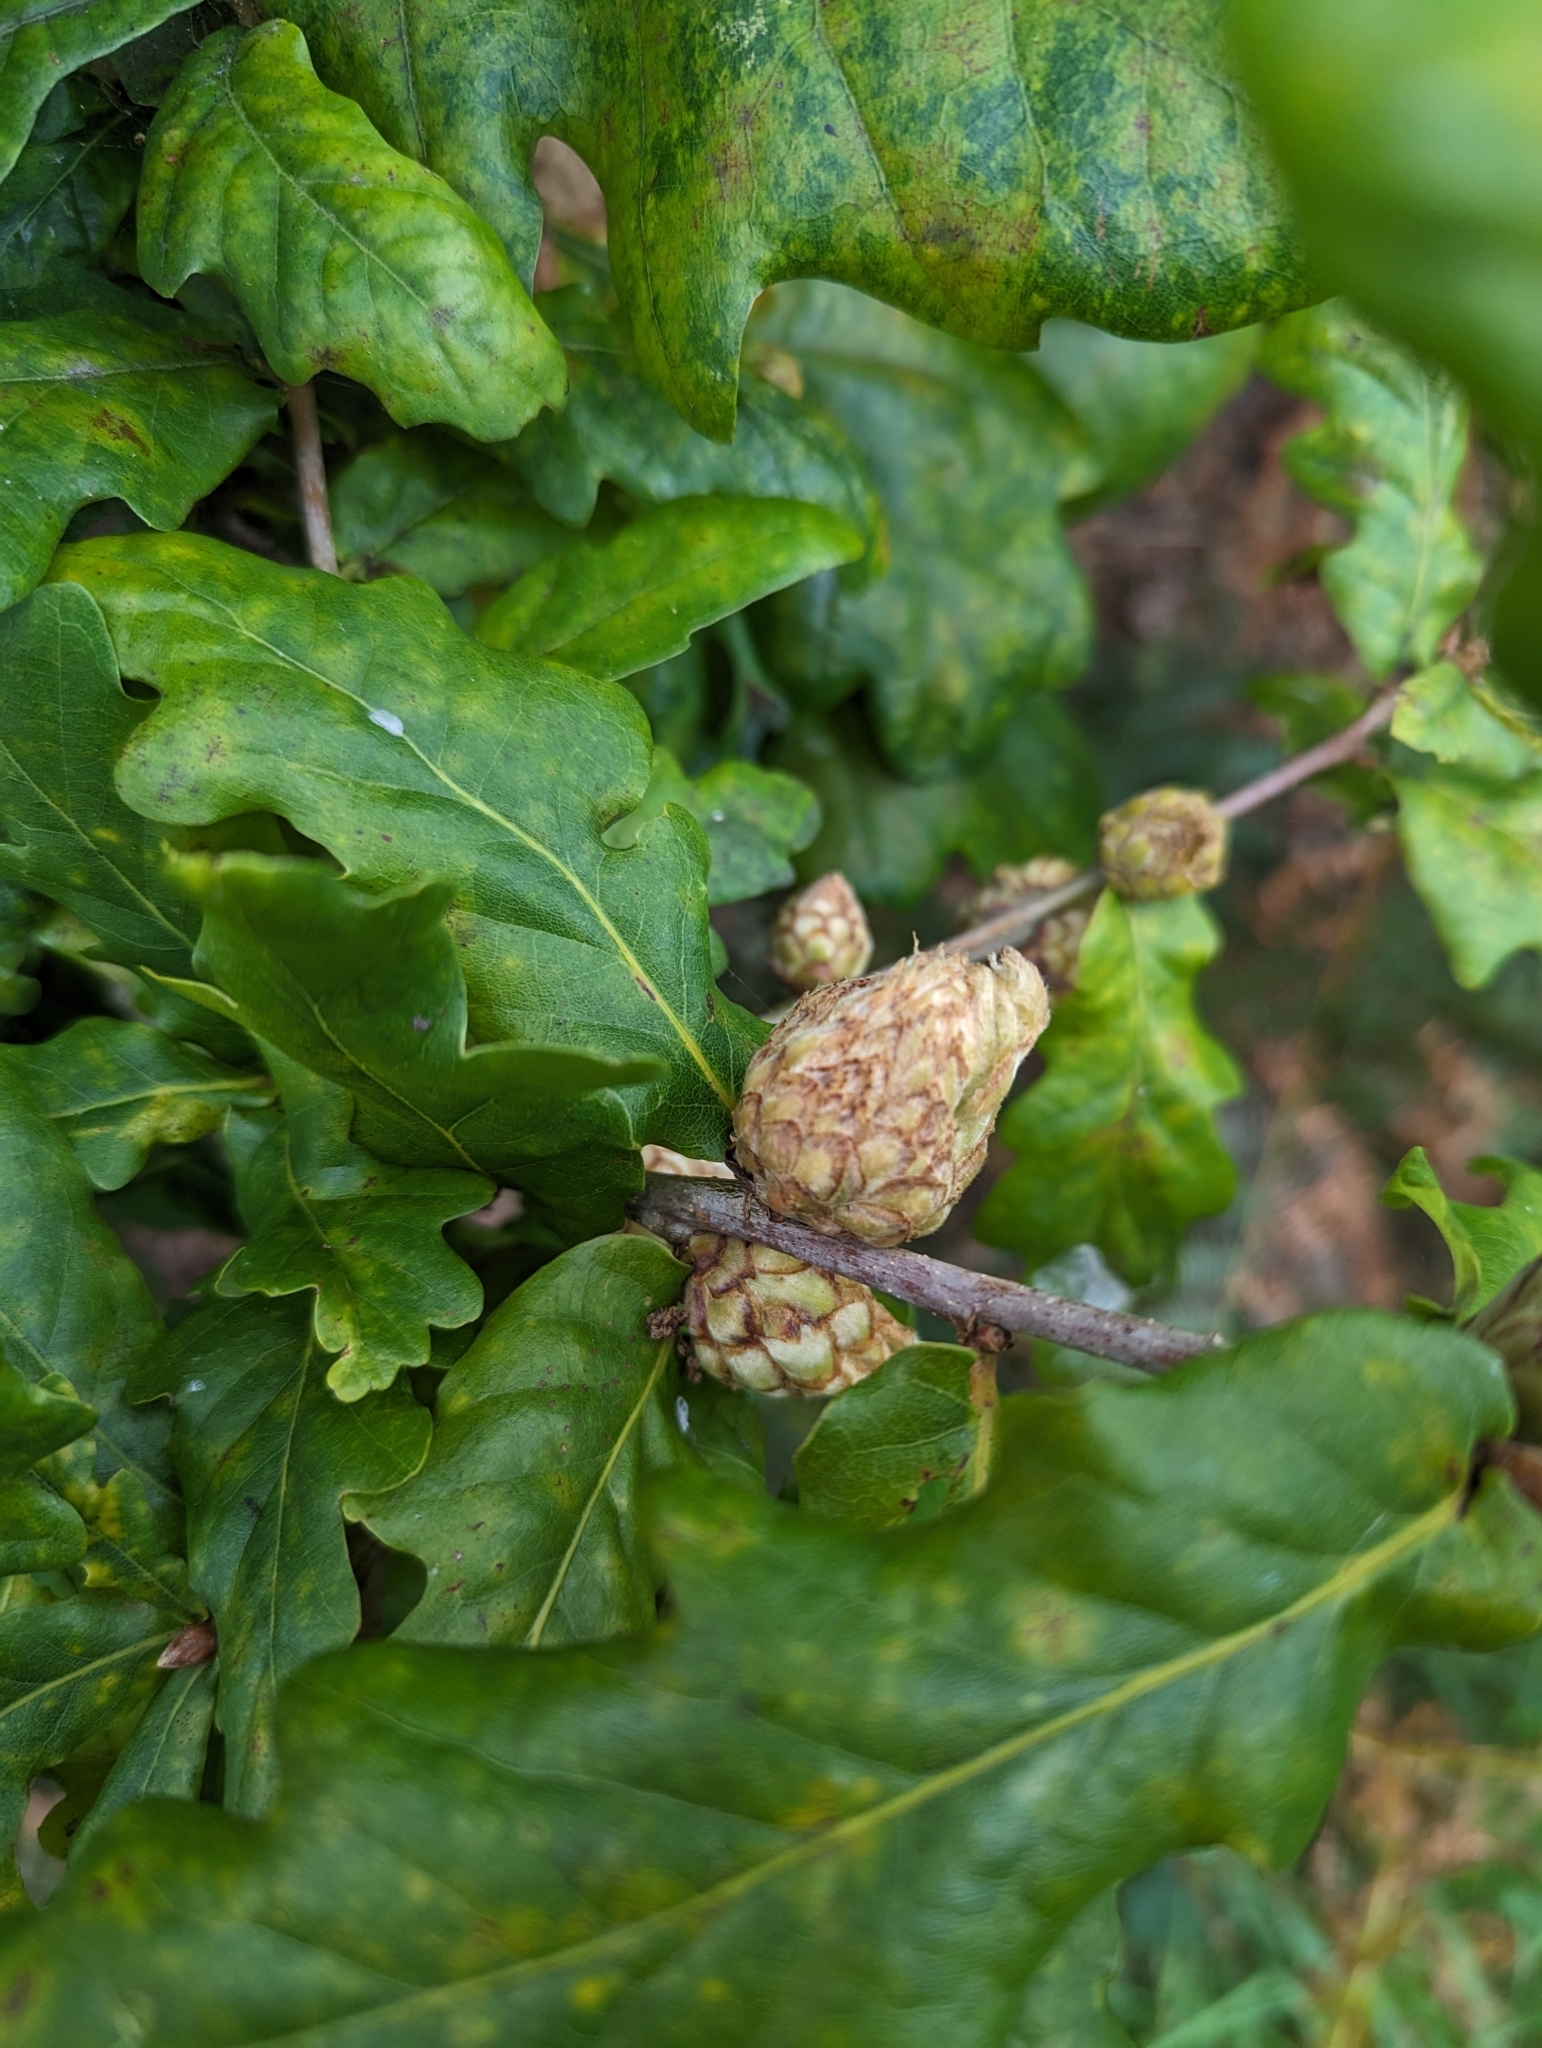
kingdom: Animalia
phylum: Arthropoda
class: Insecta
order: Hymenoptera
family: Cynipidae
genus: Andricus
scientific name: Andricus foecundatrix
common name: Artichoke gall
